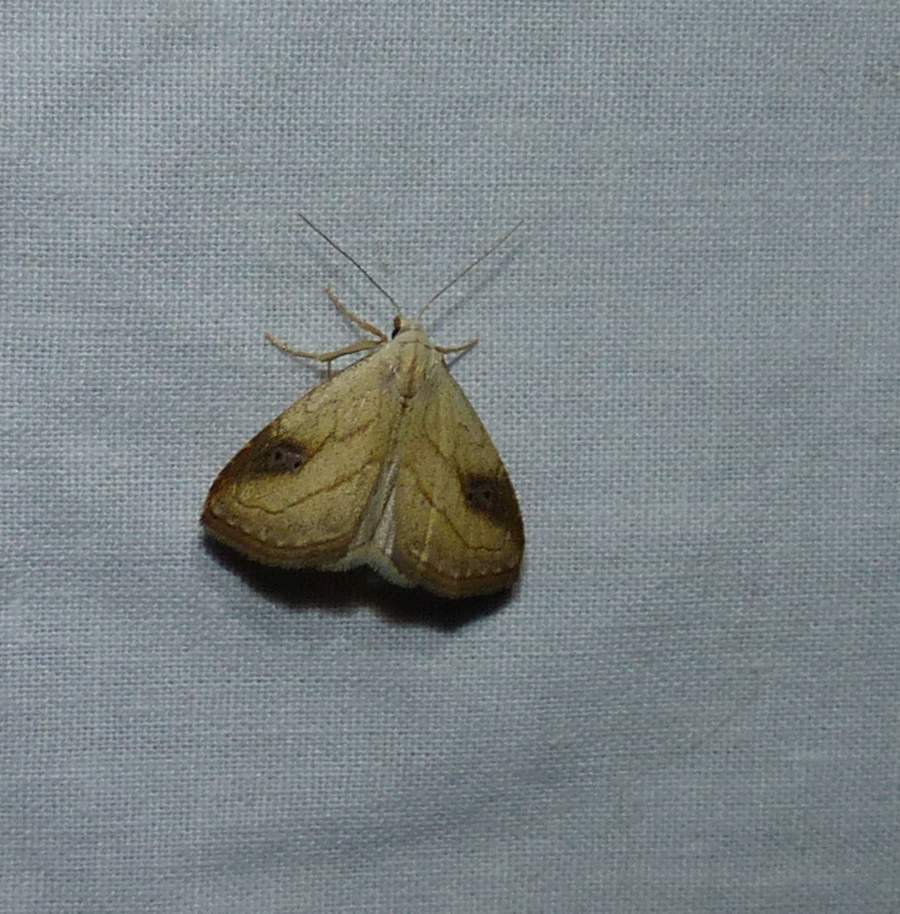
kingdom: Animalia
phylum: Arthropoda
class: Insecta
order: Lepidoptera
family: Erebidae
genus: Rivula
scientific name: Rivula propinqualis
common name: Spotted grass moth
